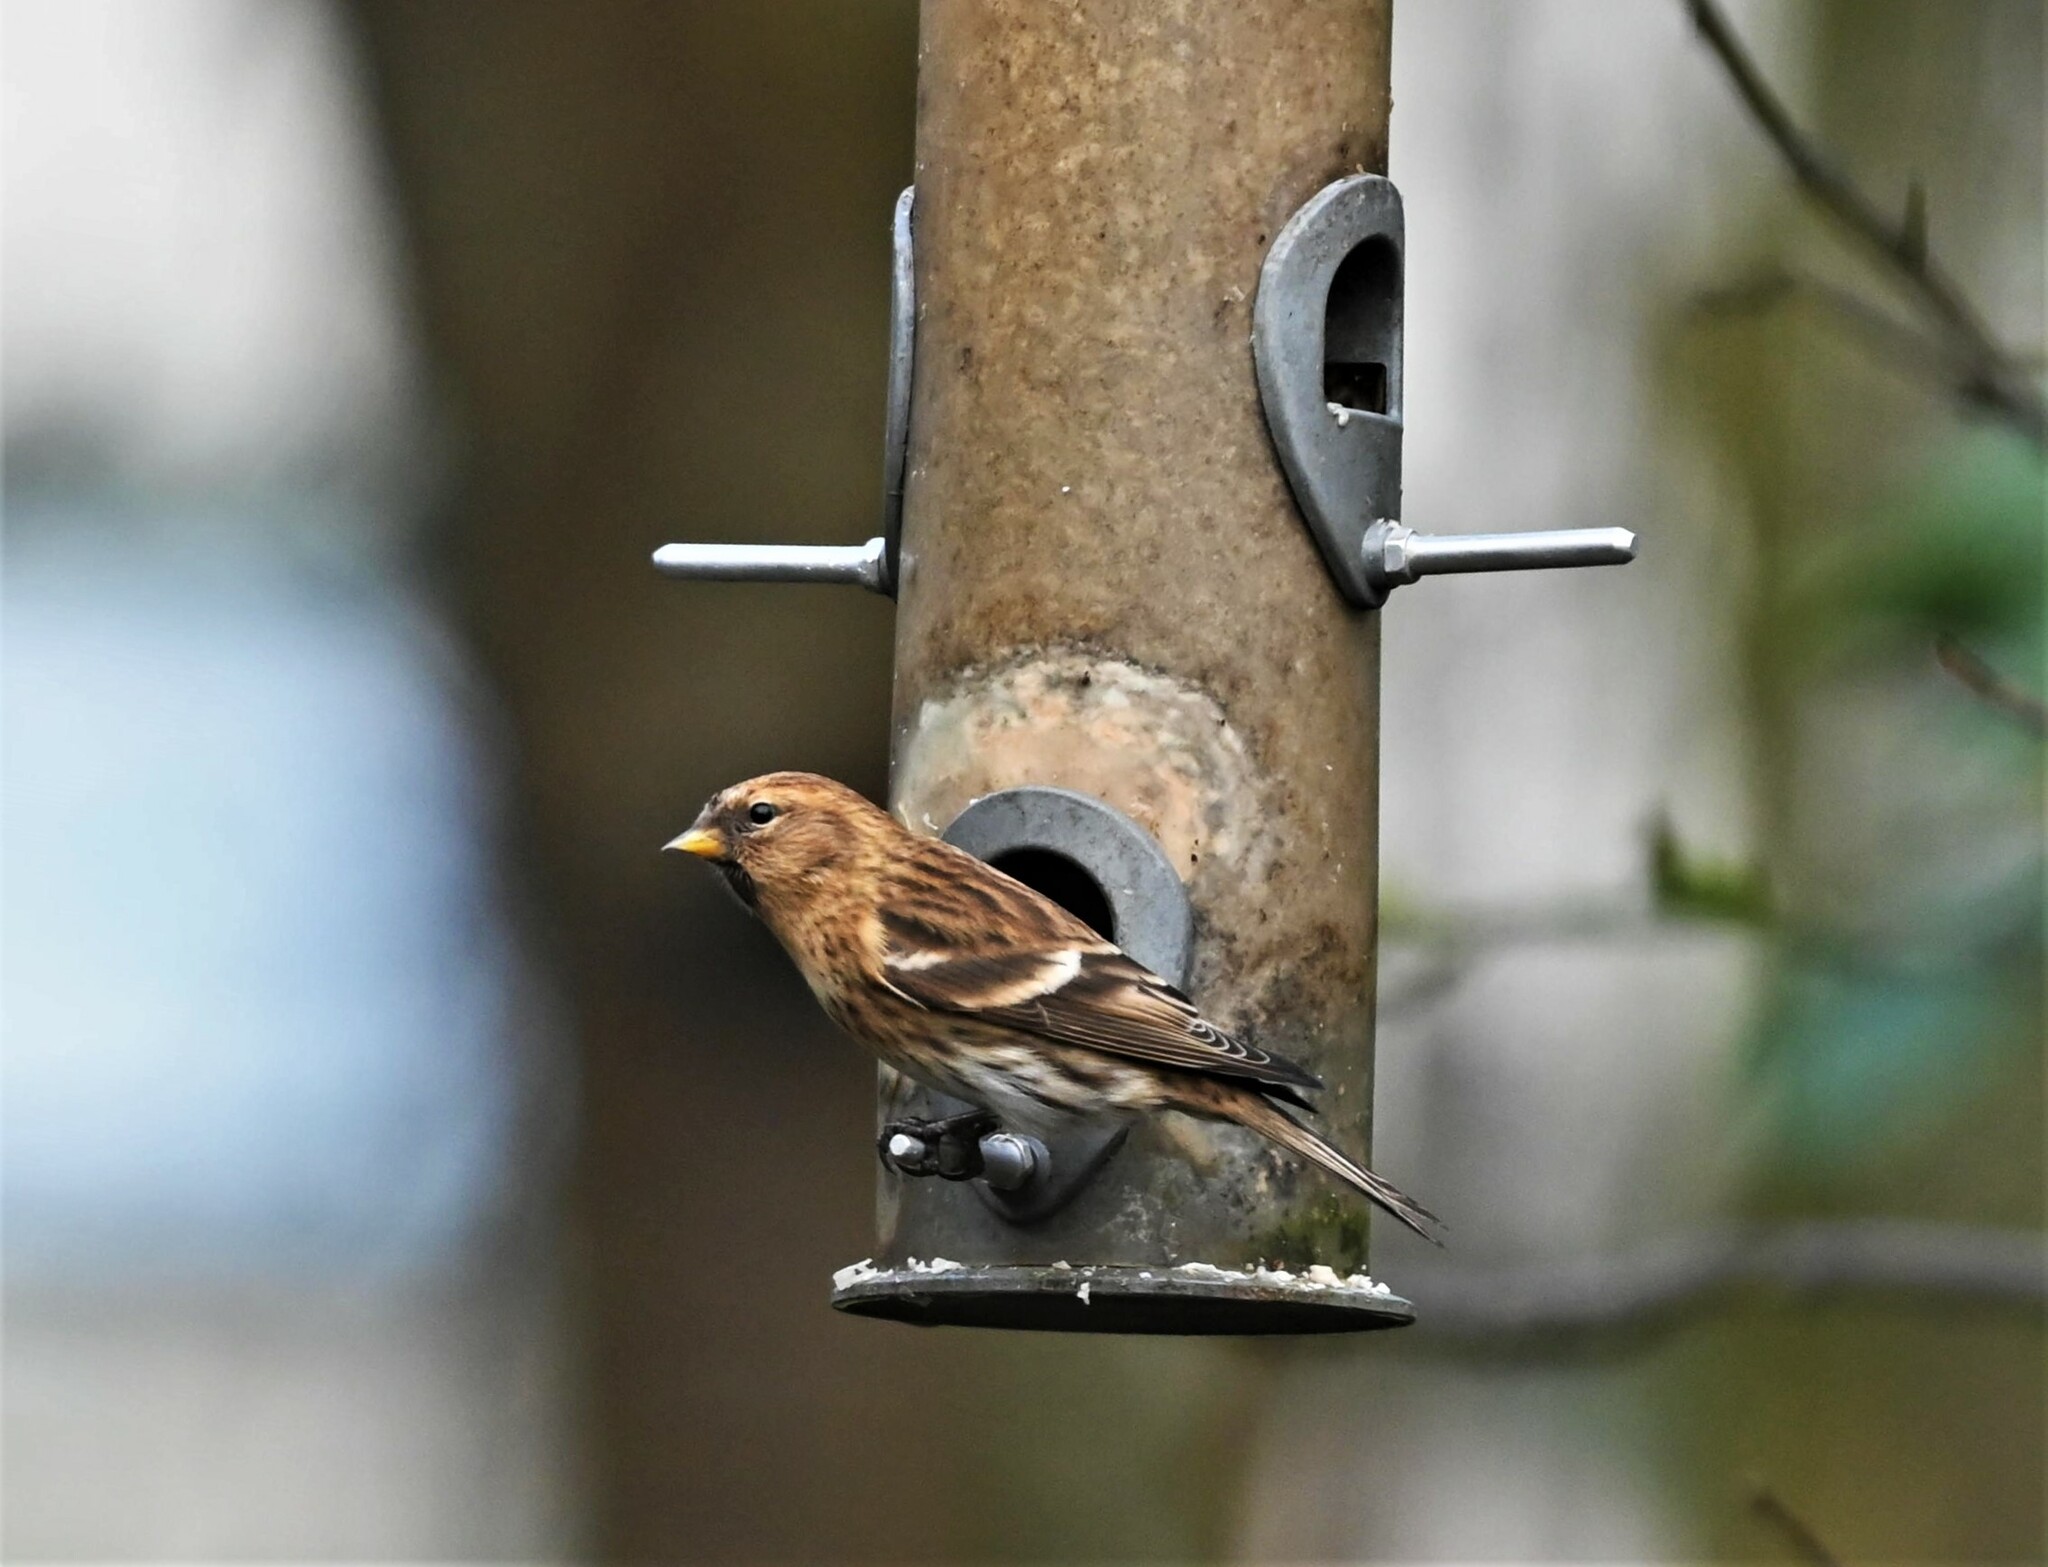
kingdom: Animalia
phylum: Chordata
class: Aves
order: Passeriformes
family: Fringillidae
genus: Acanthis
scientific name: Acanthis flammea
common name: Common redpoll
